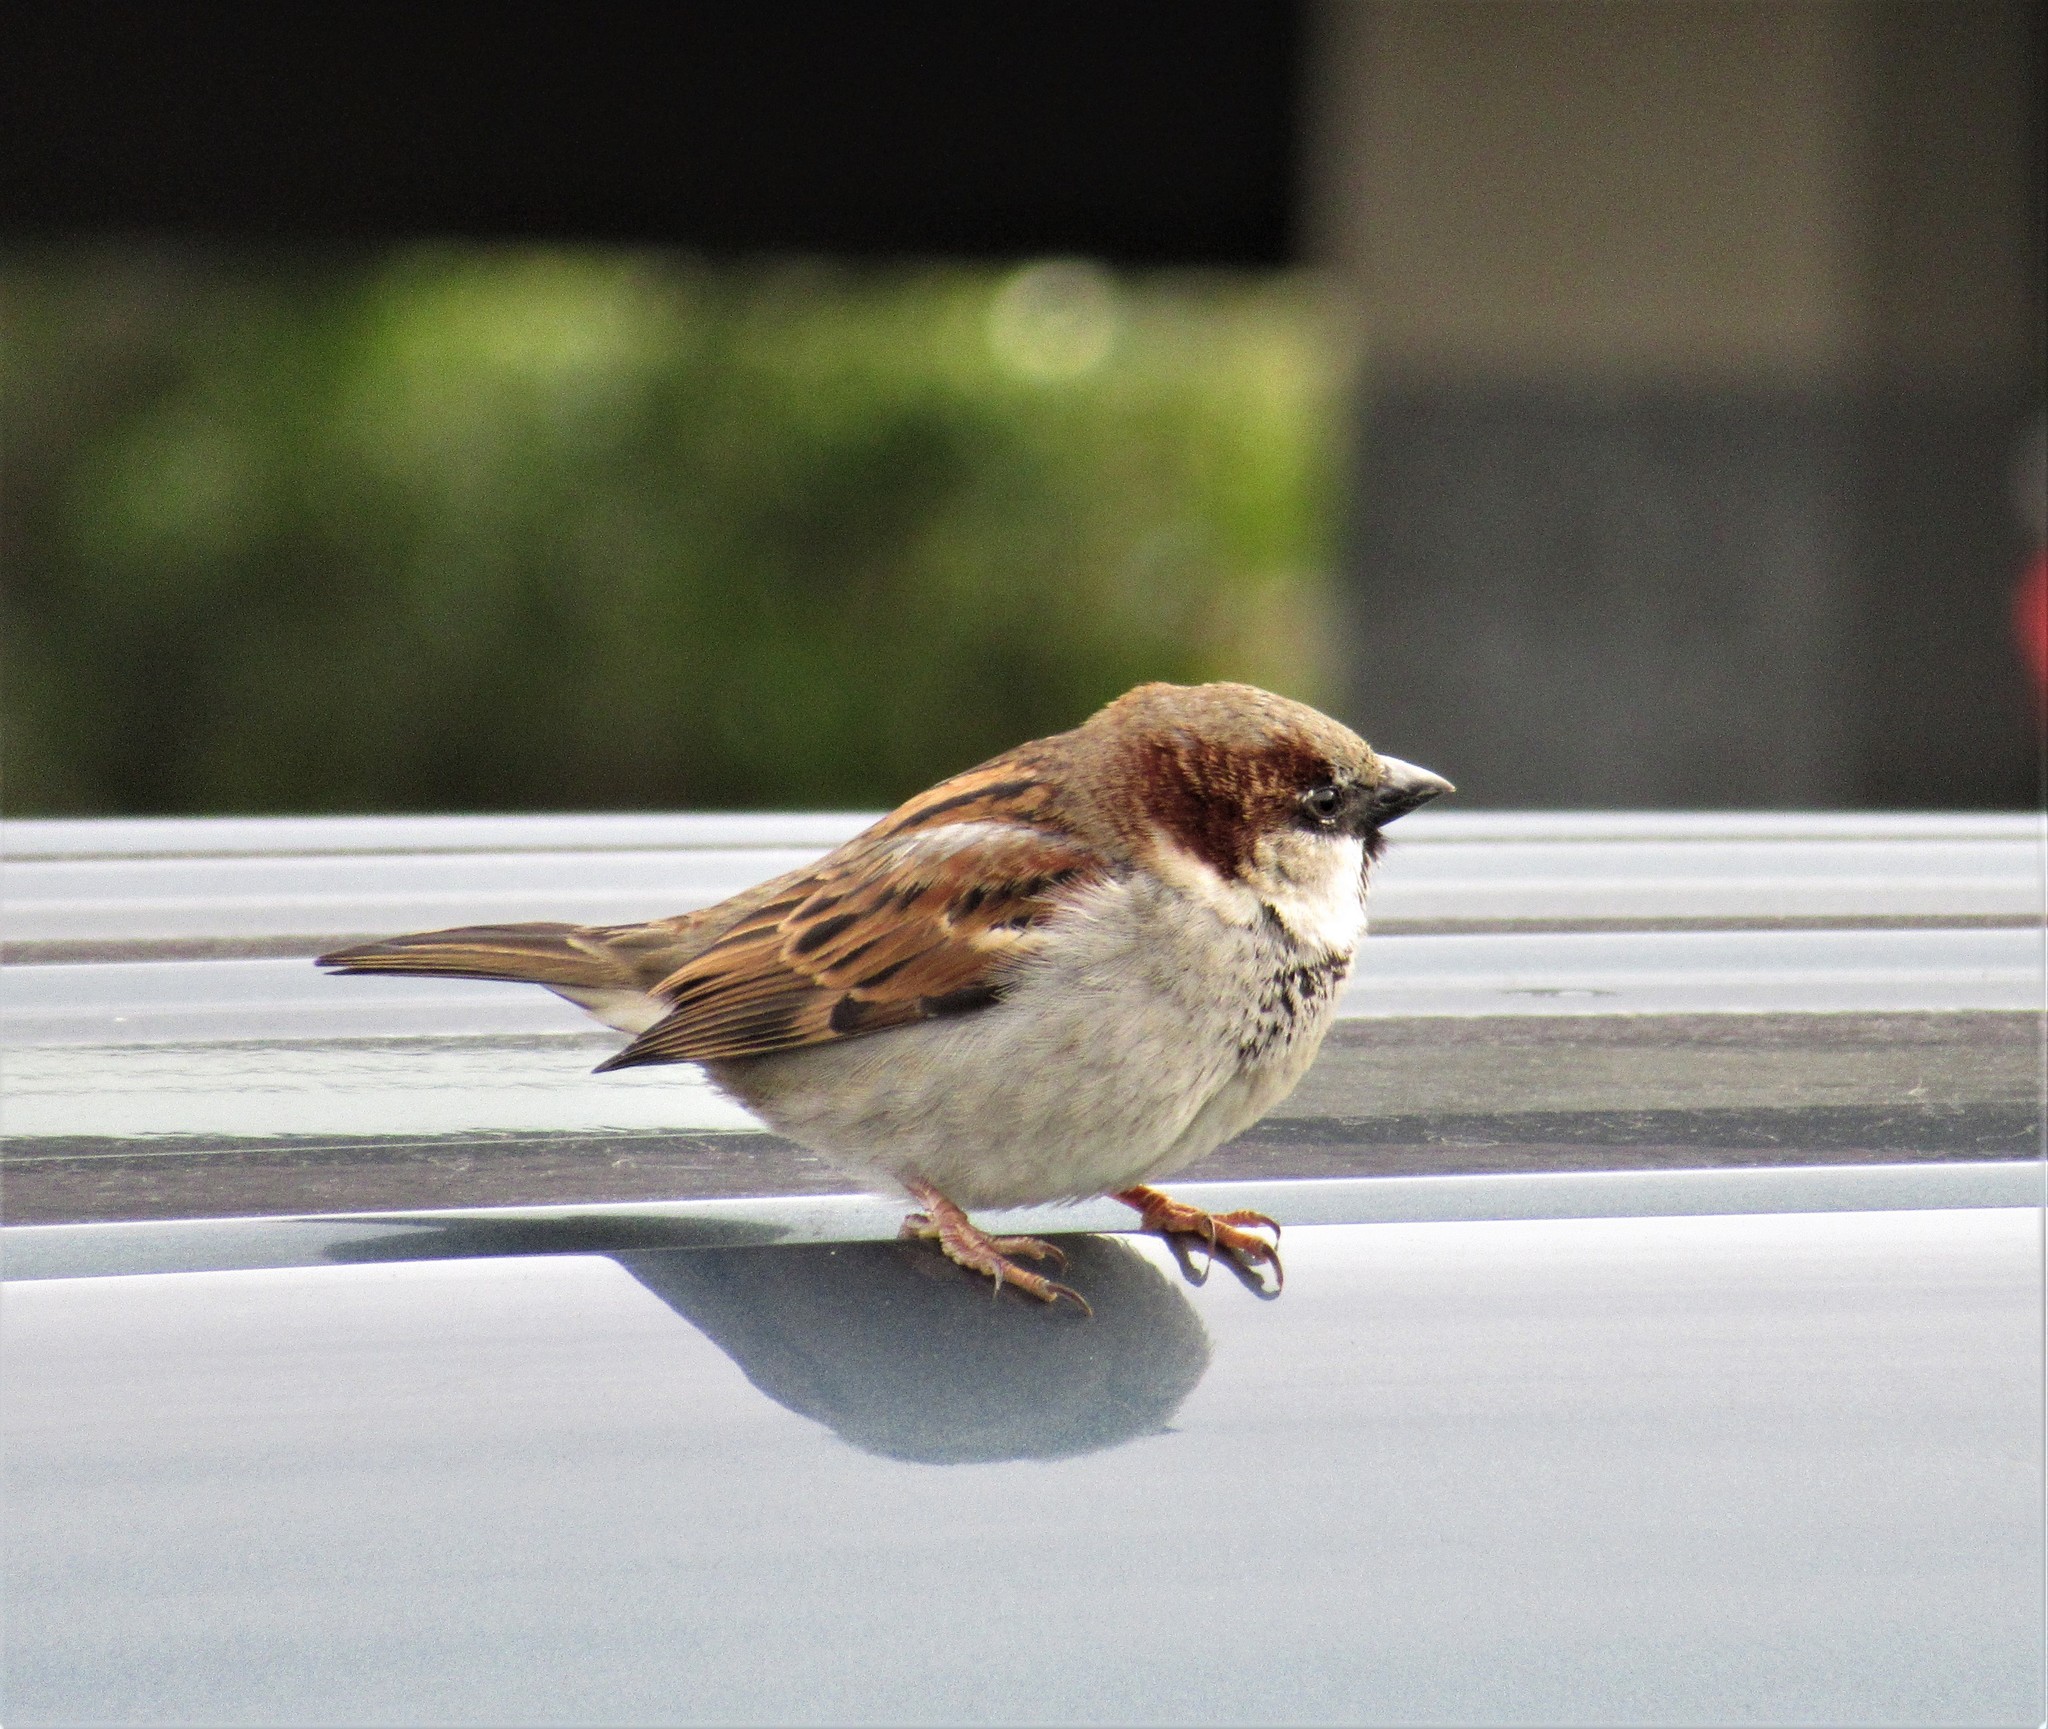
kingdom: Animalia
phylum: Chordata
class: Aves
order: Passeriformes
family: Passeridae
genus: Passer
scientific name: Passer domesticus
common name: House sparrow
